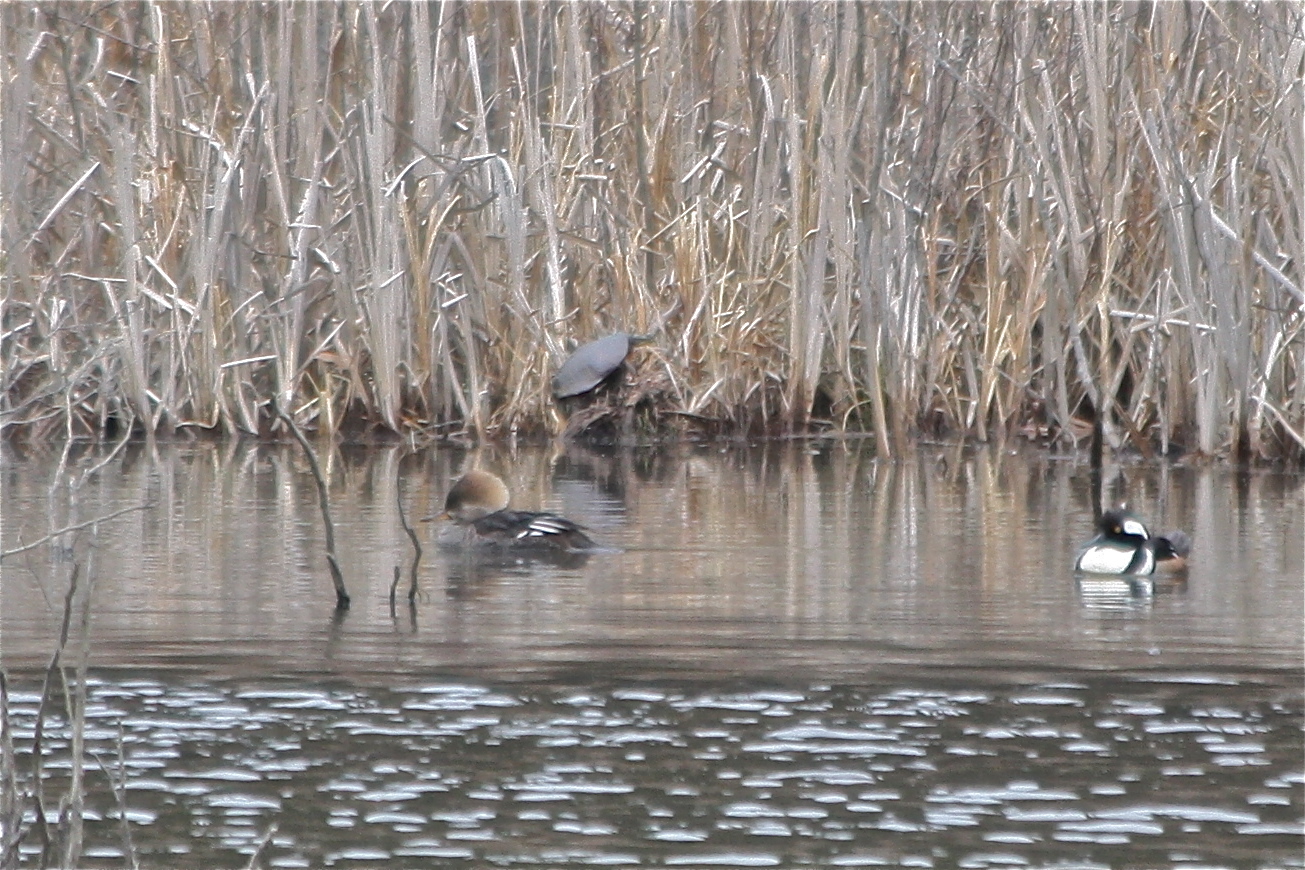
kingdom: Animalia
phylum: Chordata
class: Testudines
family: Emydidae
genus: Chrysemys
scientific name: Chrysemys picta
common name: Painted turtle
